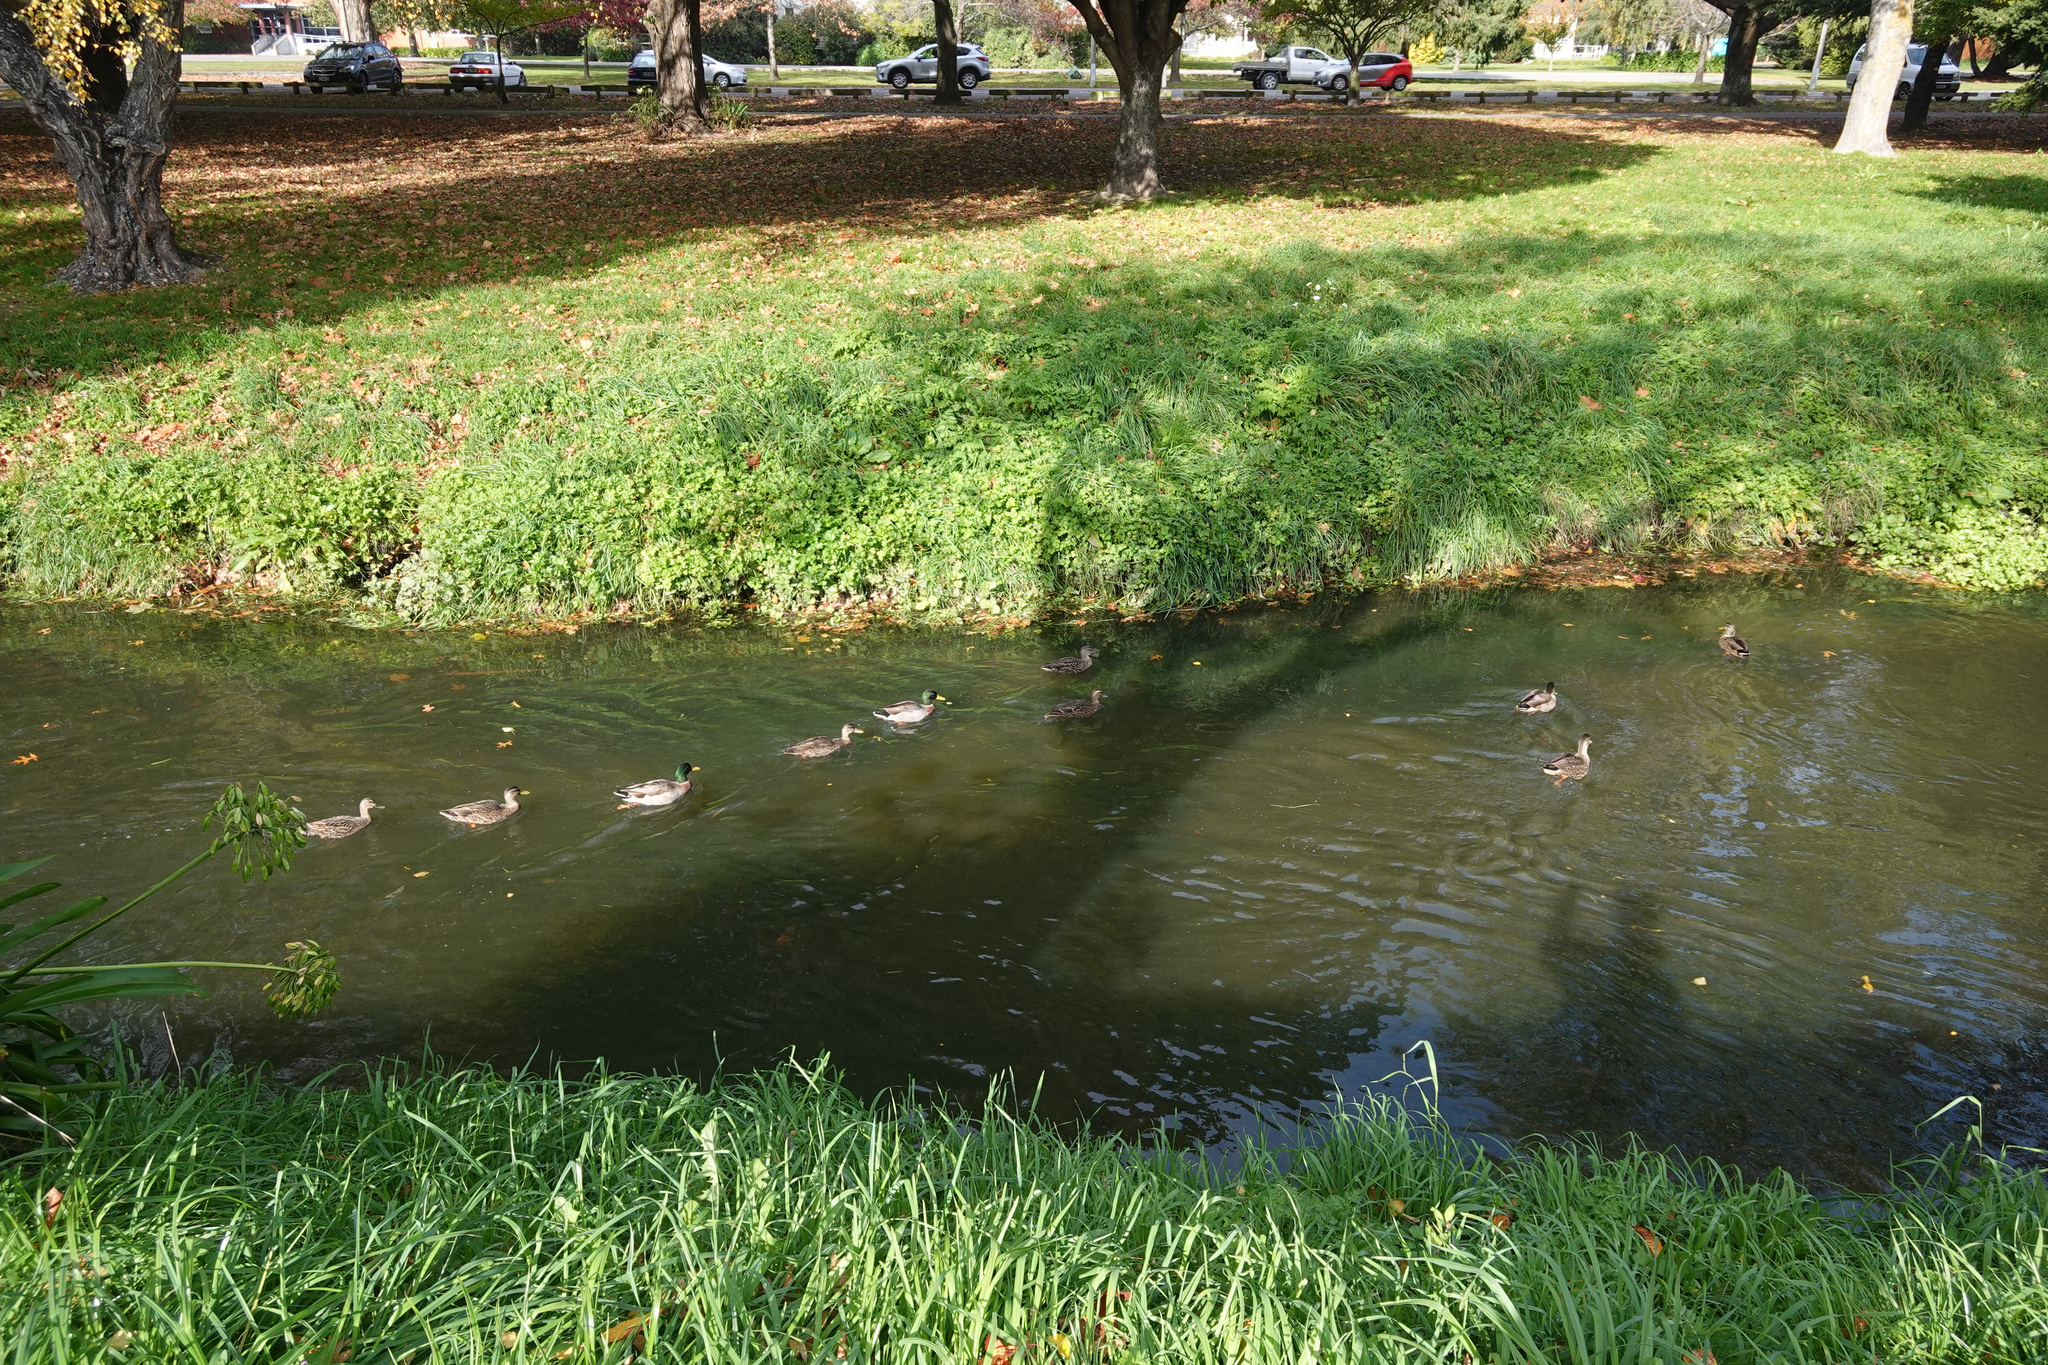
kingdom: Animalia
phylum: Chordata
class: Aves
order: Anseriformes
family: Anatidae
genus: Anas
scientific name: Anas platyrhynchos
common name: Mallard
